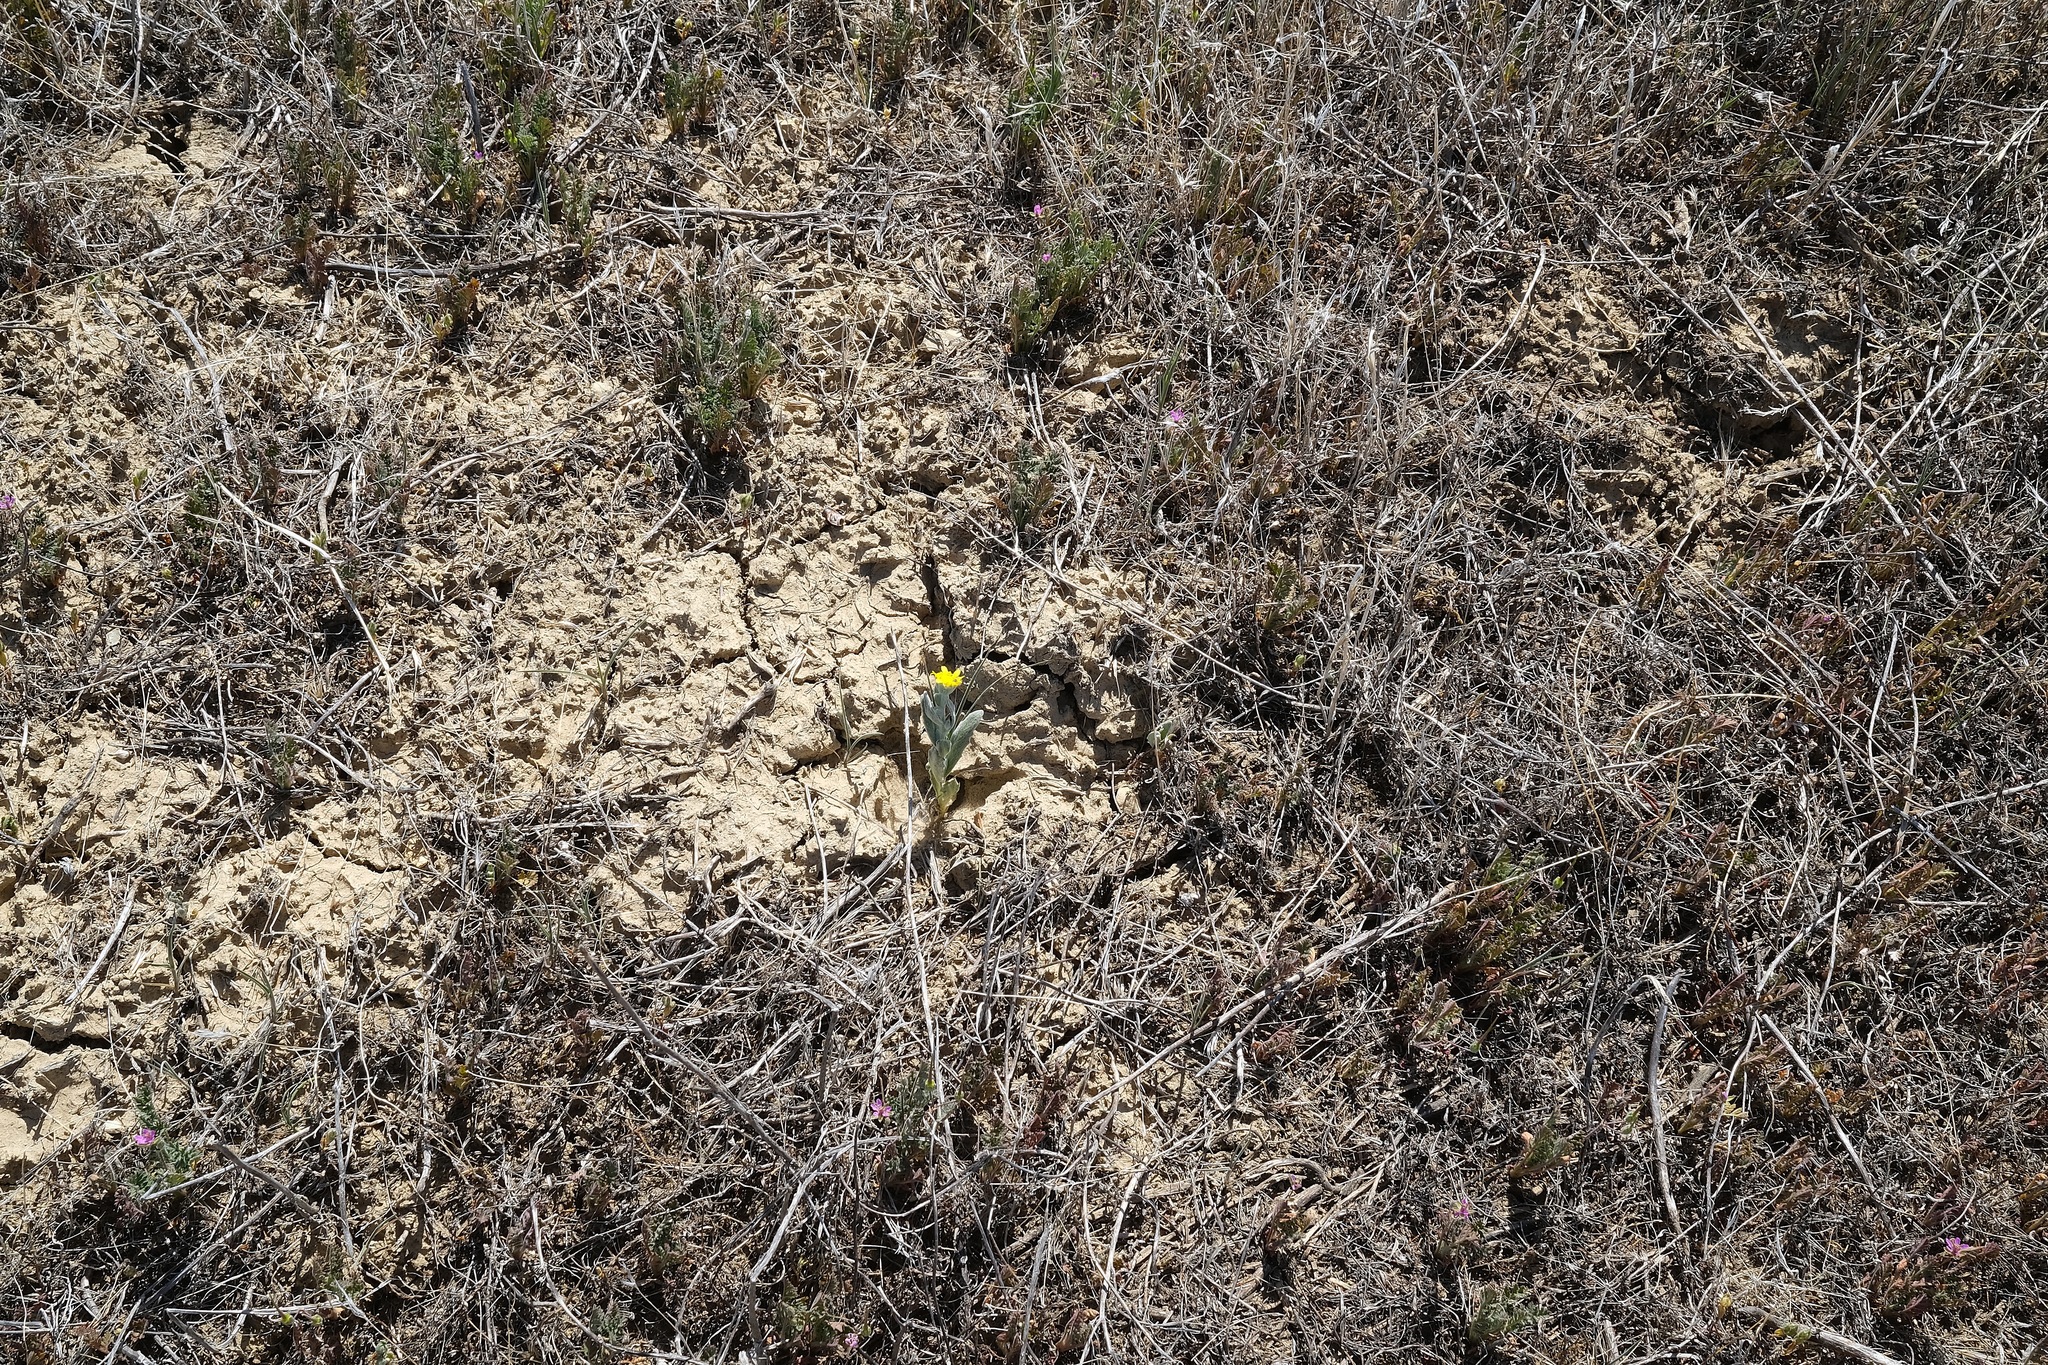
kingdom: Plantae
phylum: Tracheophyta
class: Magnoliopsida
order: Asterales
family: Asteraceae
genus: Monolopia
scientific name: Monolopia stricta
